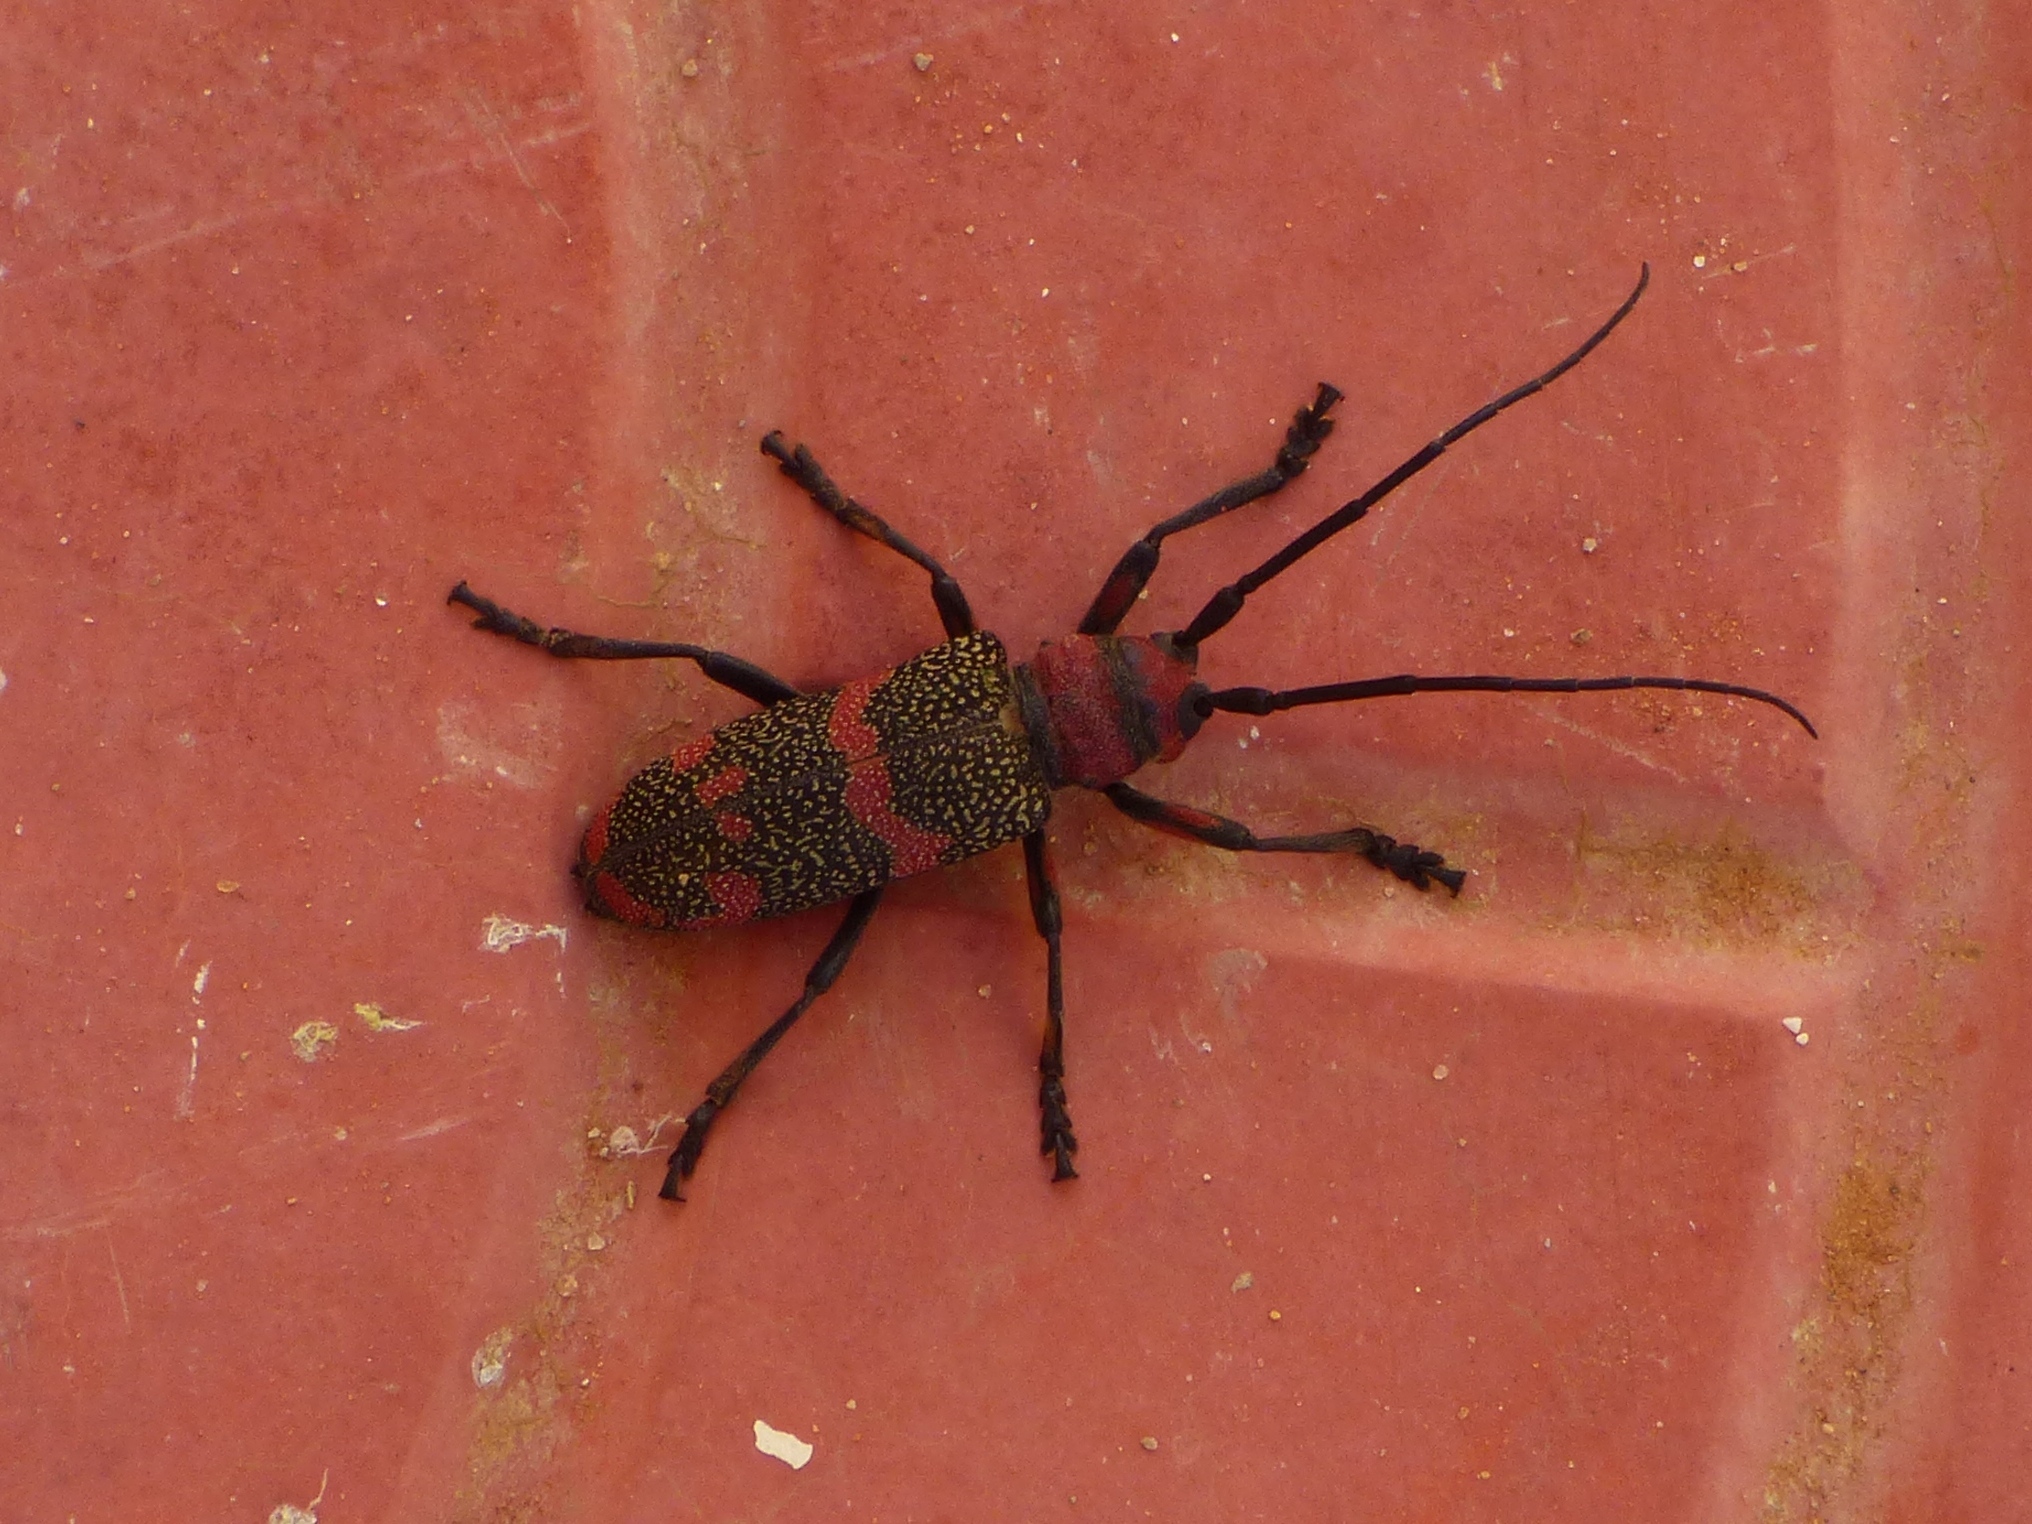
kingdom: Animalia
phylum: Arthropoda
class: Insecta
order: Coleoptera
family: Cerambycidae
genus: Ceroplesis
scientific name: Ceroplesis revoili
